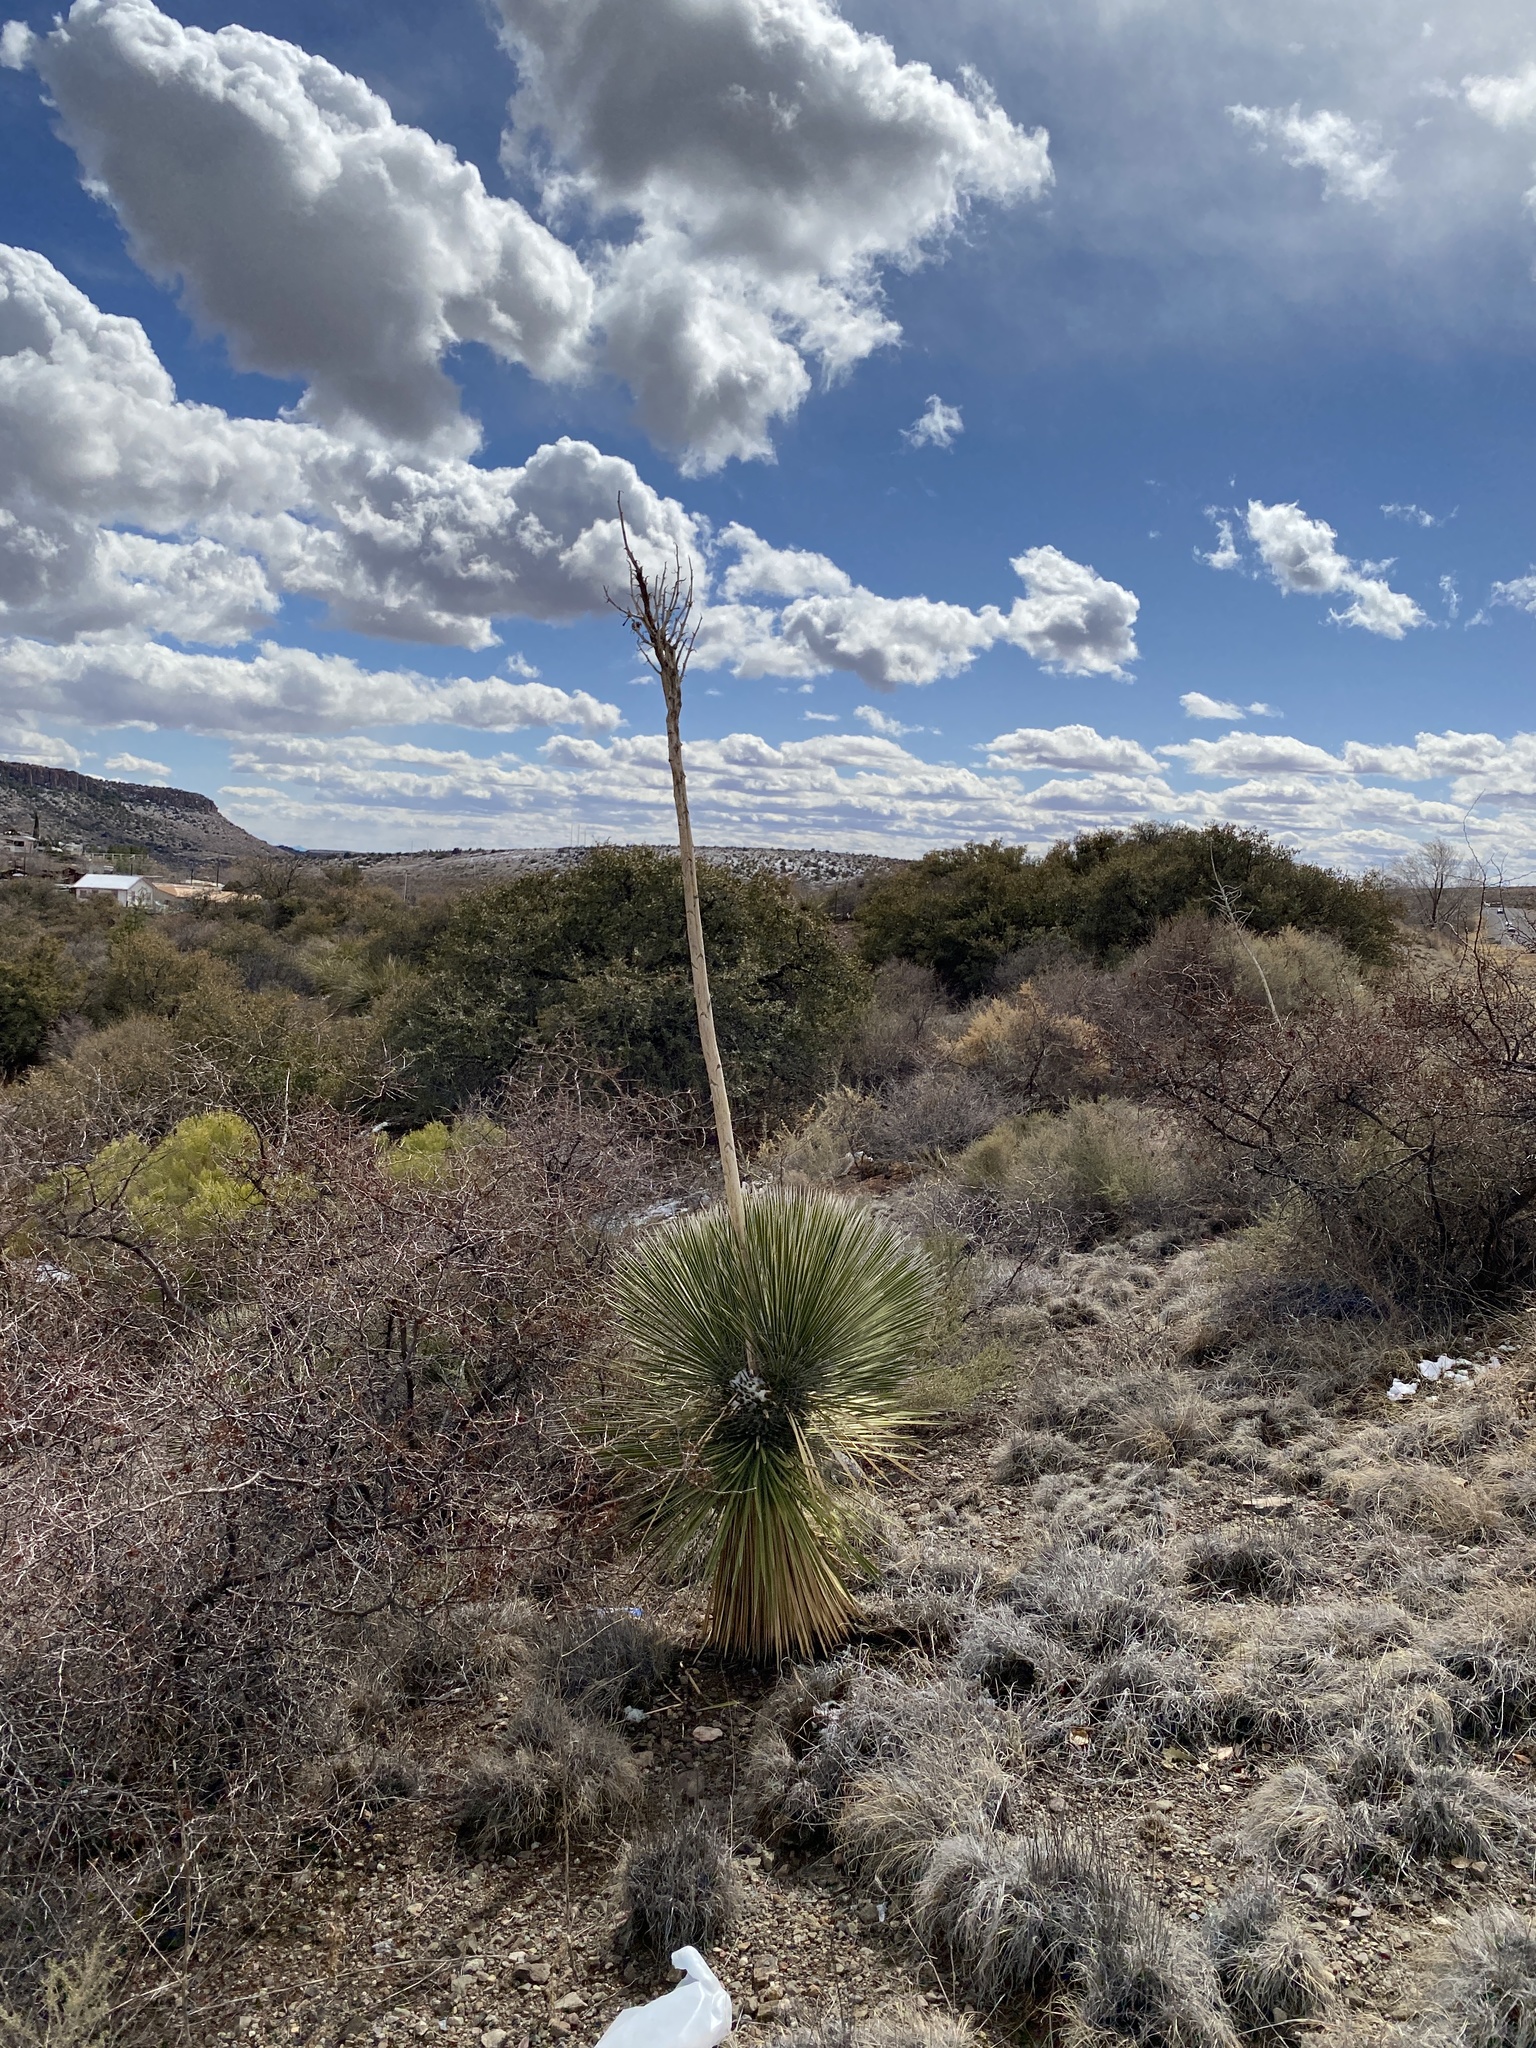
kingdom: Plantae
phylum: Tracheophyta
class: Liliopsida
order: Asparagales
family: Asparagaceae
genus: Yucca
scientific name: Yucca elata
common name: Palmella
